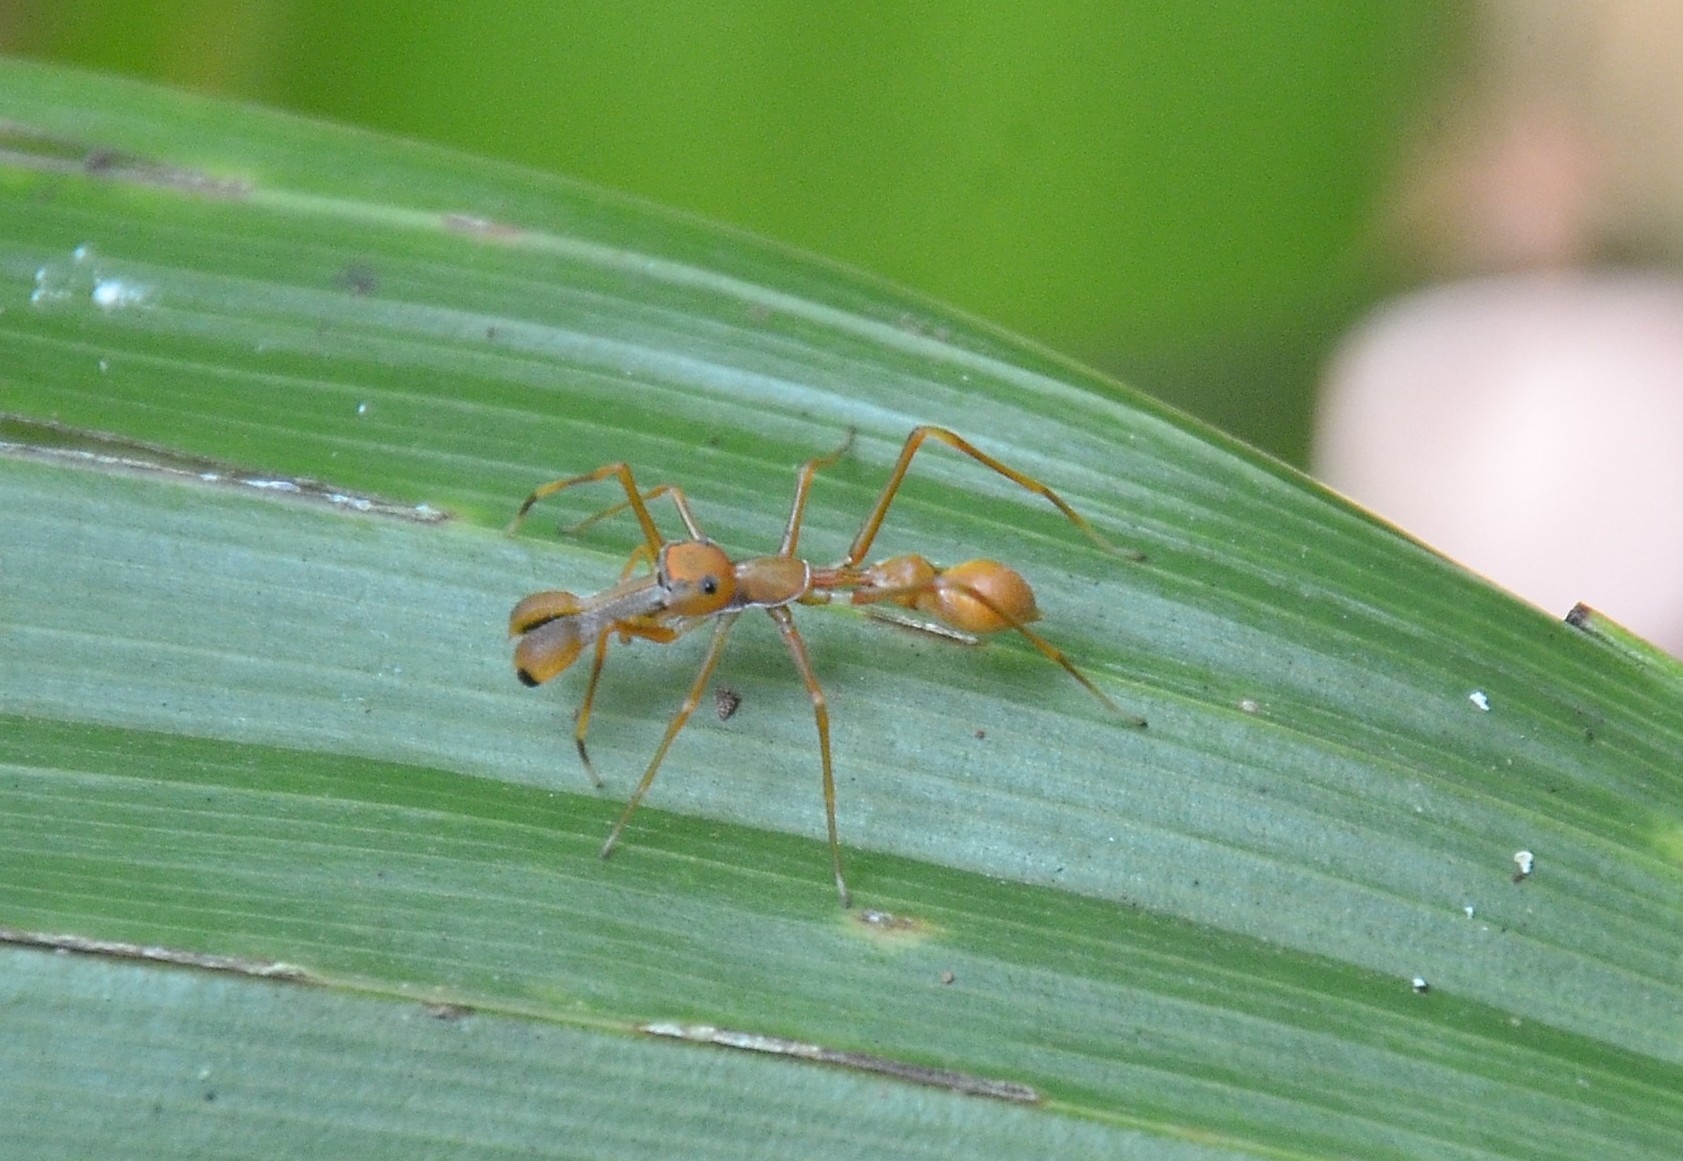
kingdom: Animalia
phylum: Arthropoda
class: Arachnida
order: Araneae
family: Salticidae
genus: Myrmaplata
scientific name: Myrmaplata plataleoides
